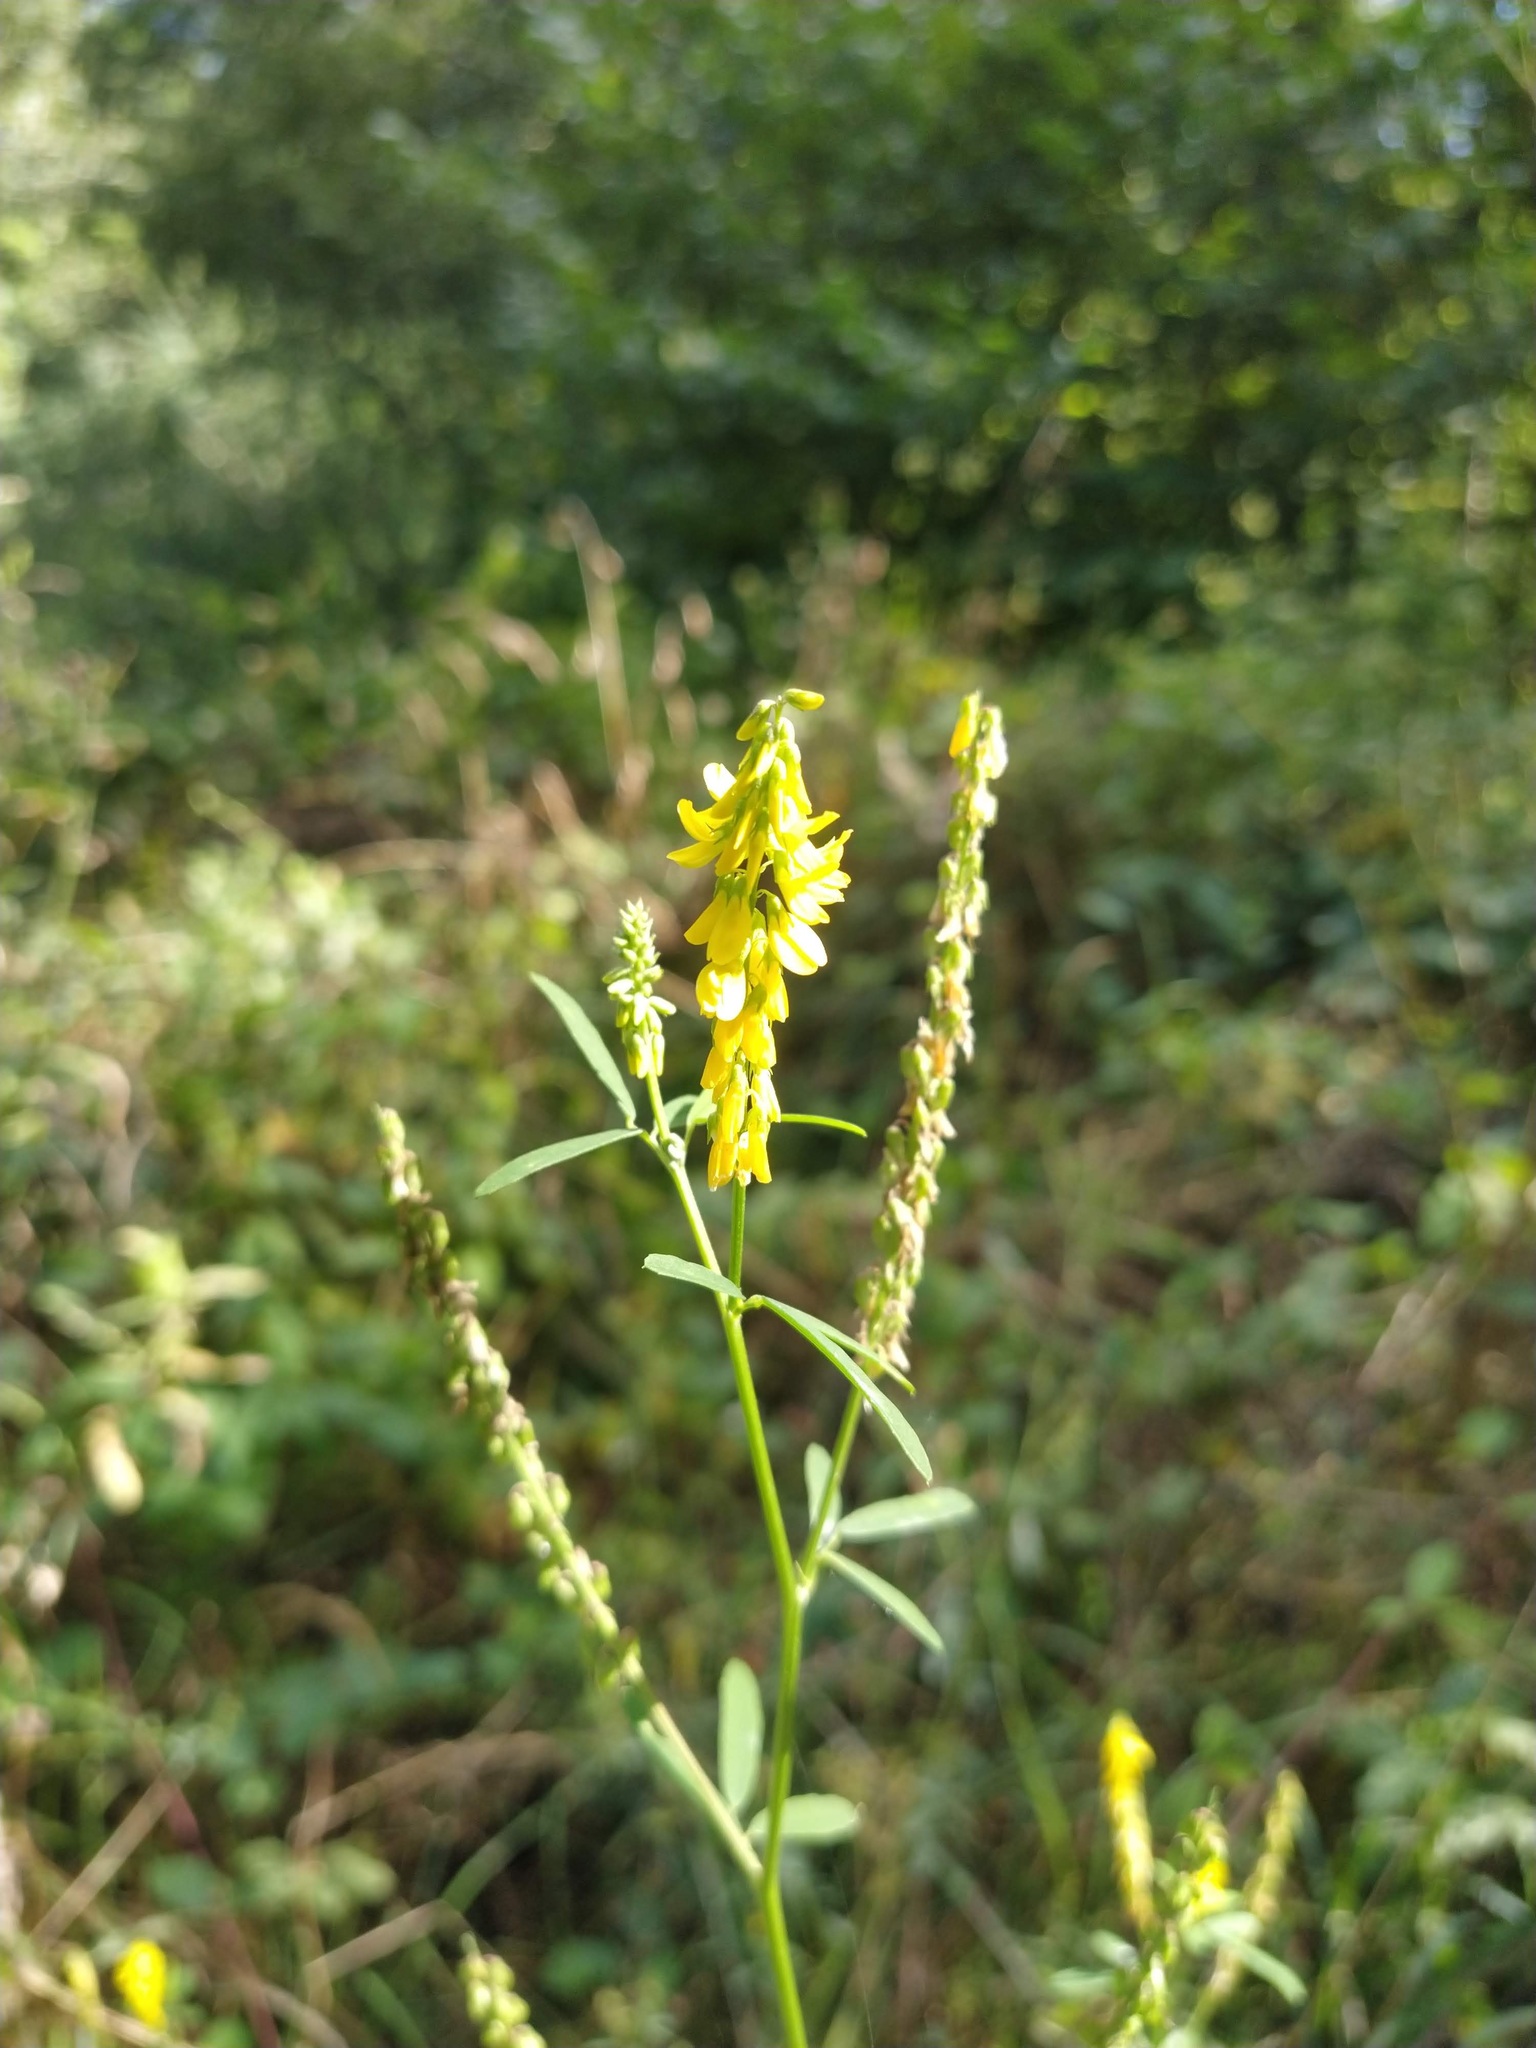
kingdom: Plantae
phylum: Tracheophyta
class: Magnoliopsida
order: Fabales
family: Fabaceae
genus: Melilotus
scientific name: Melilotus officinalis
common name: Sweetclover
